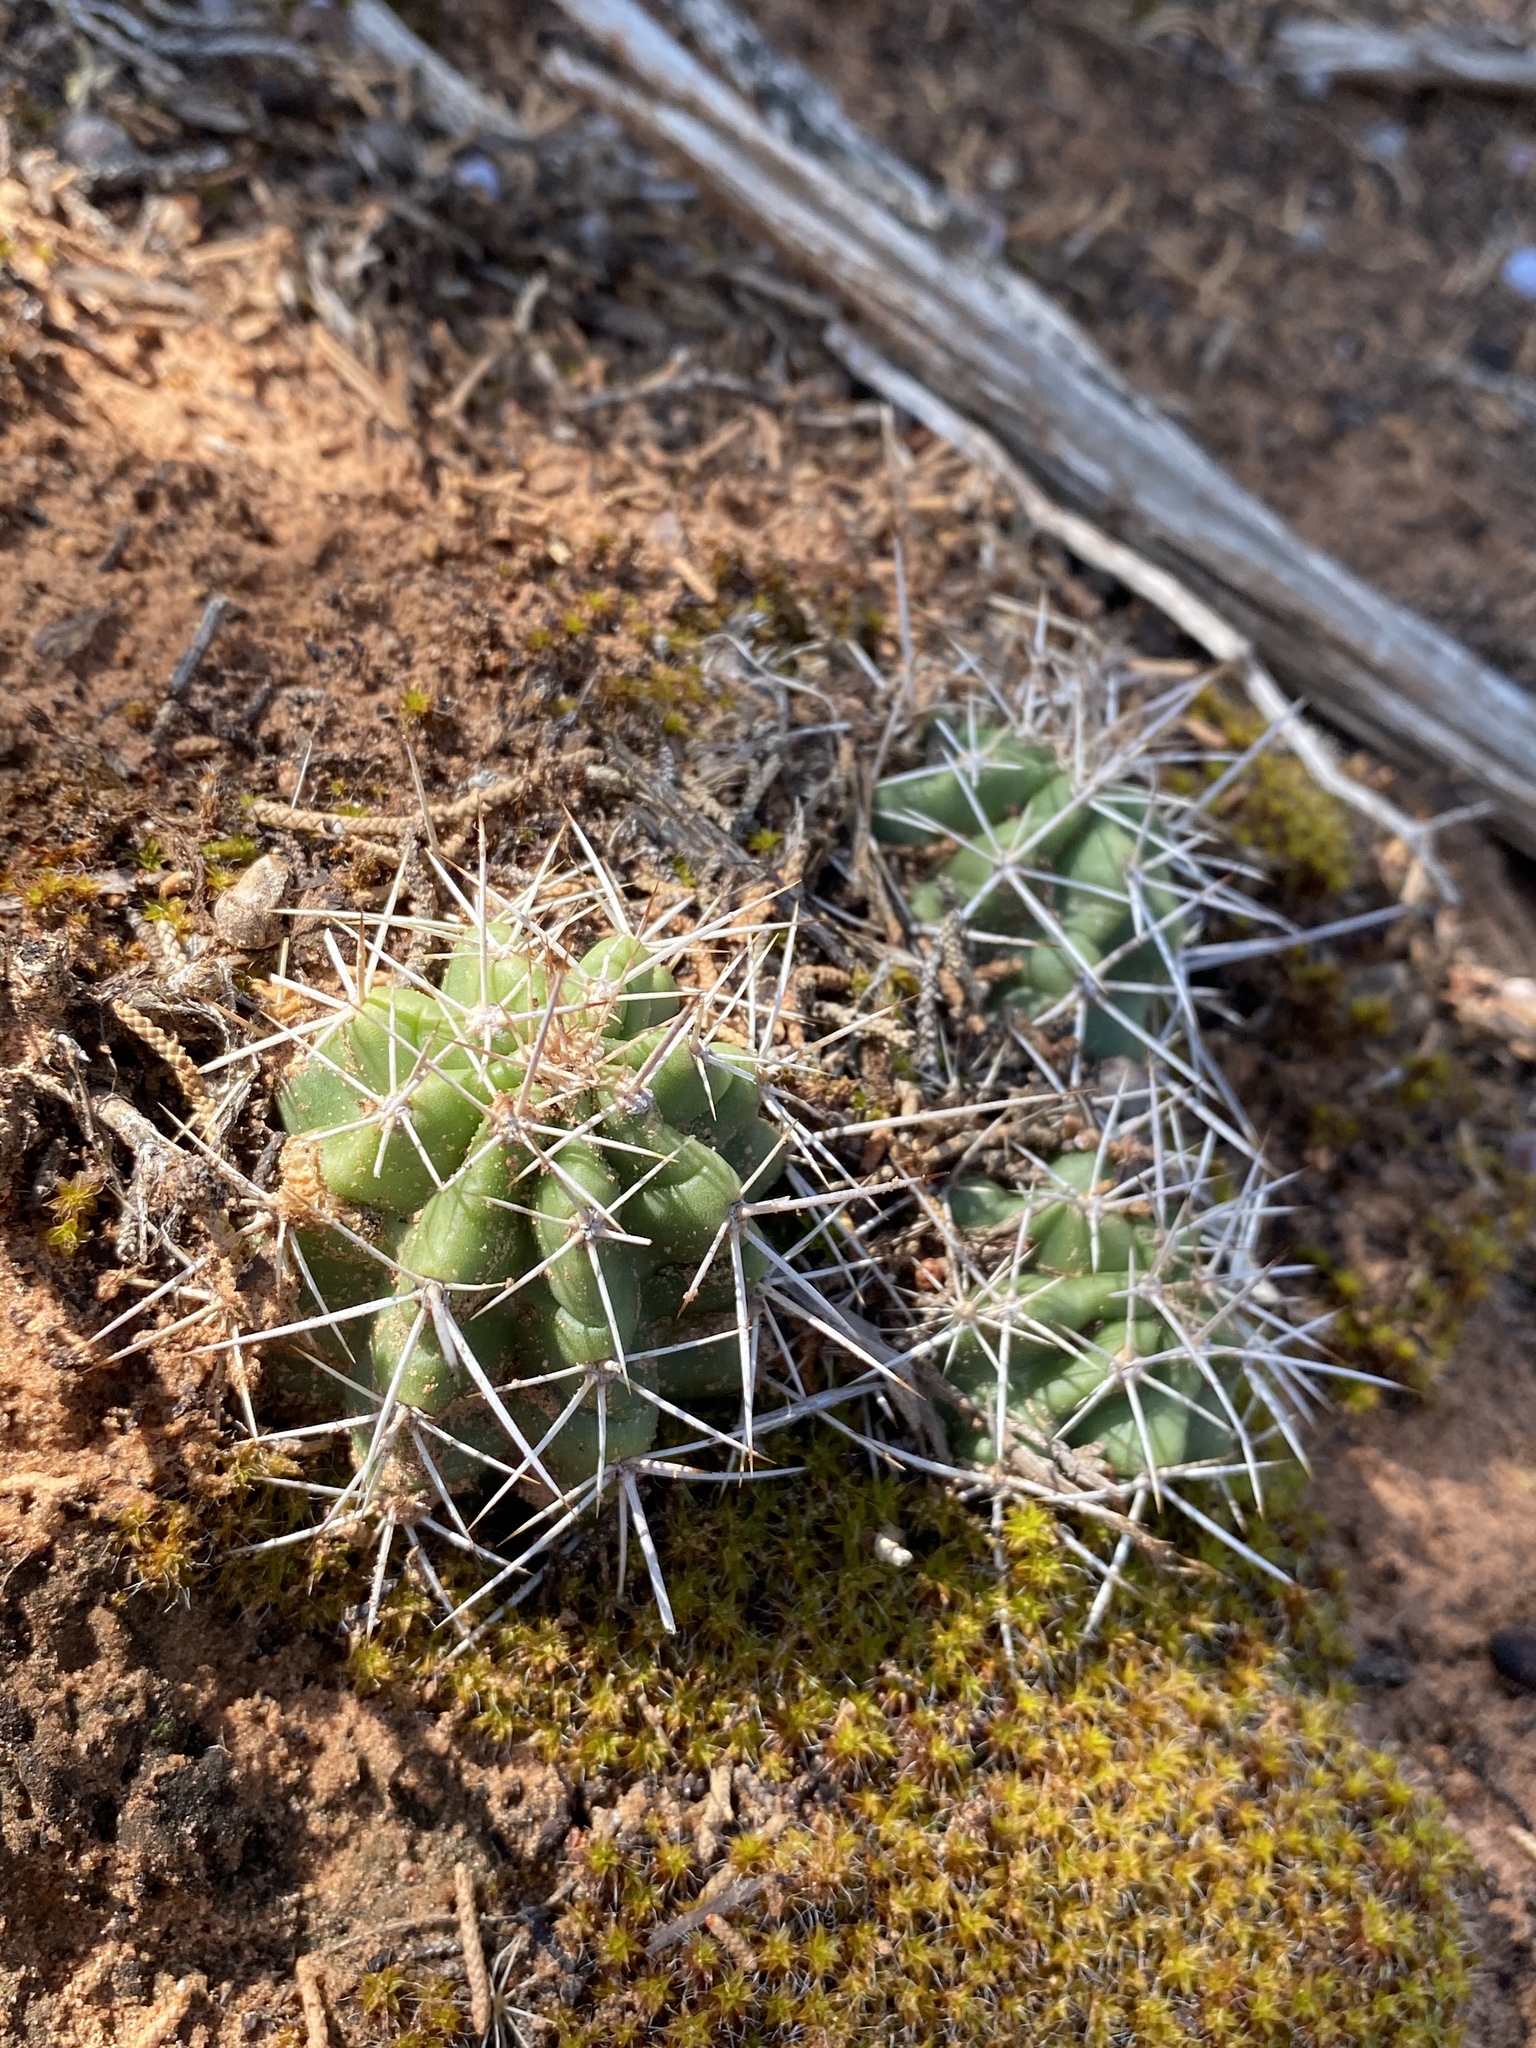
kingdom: Plantae
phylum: Tracheophyta
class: Magnoliopsida
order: Caryophyllales
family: Cactaceae
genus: Echinocereus
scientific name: Echinocereus triglochidiatus
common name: Claretcup hedgehog
